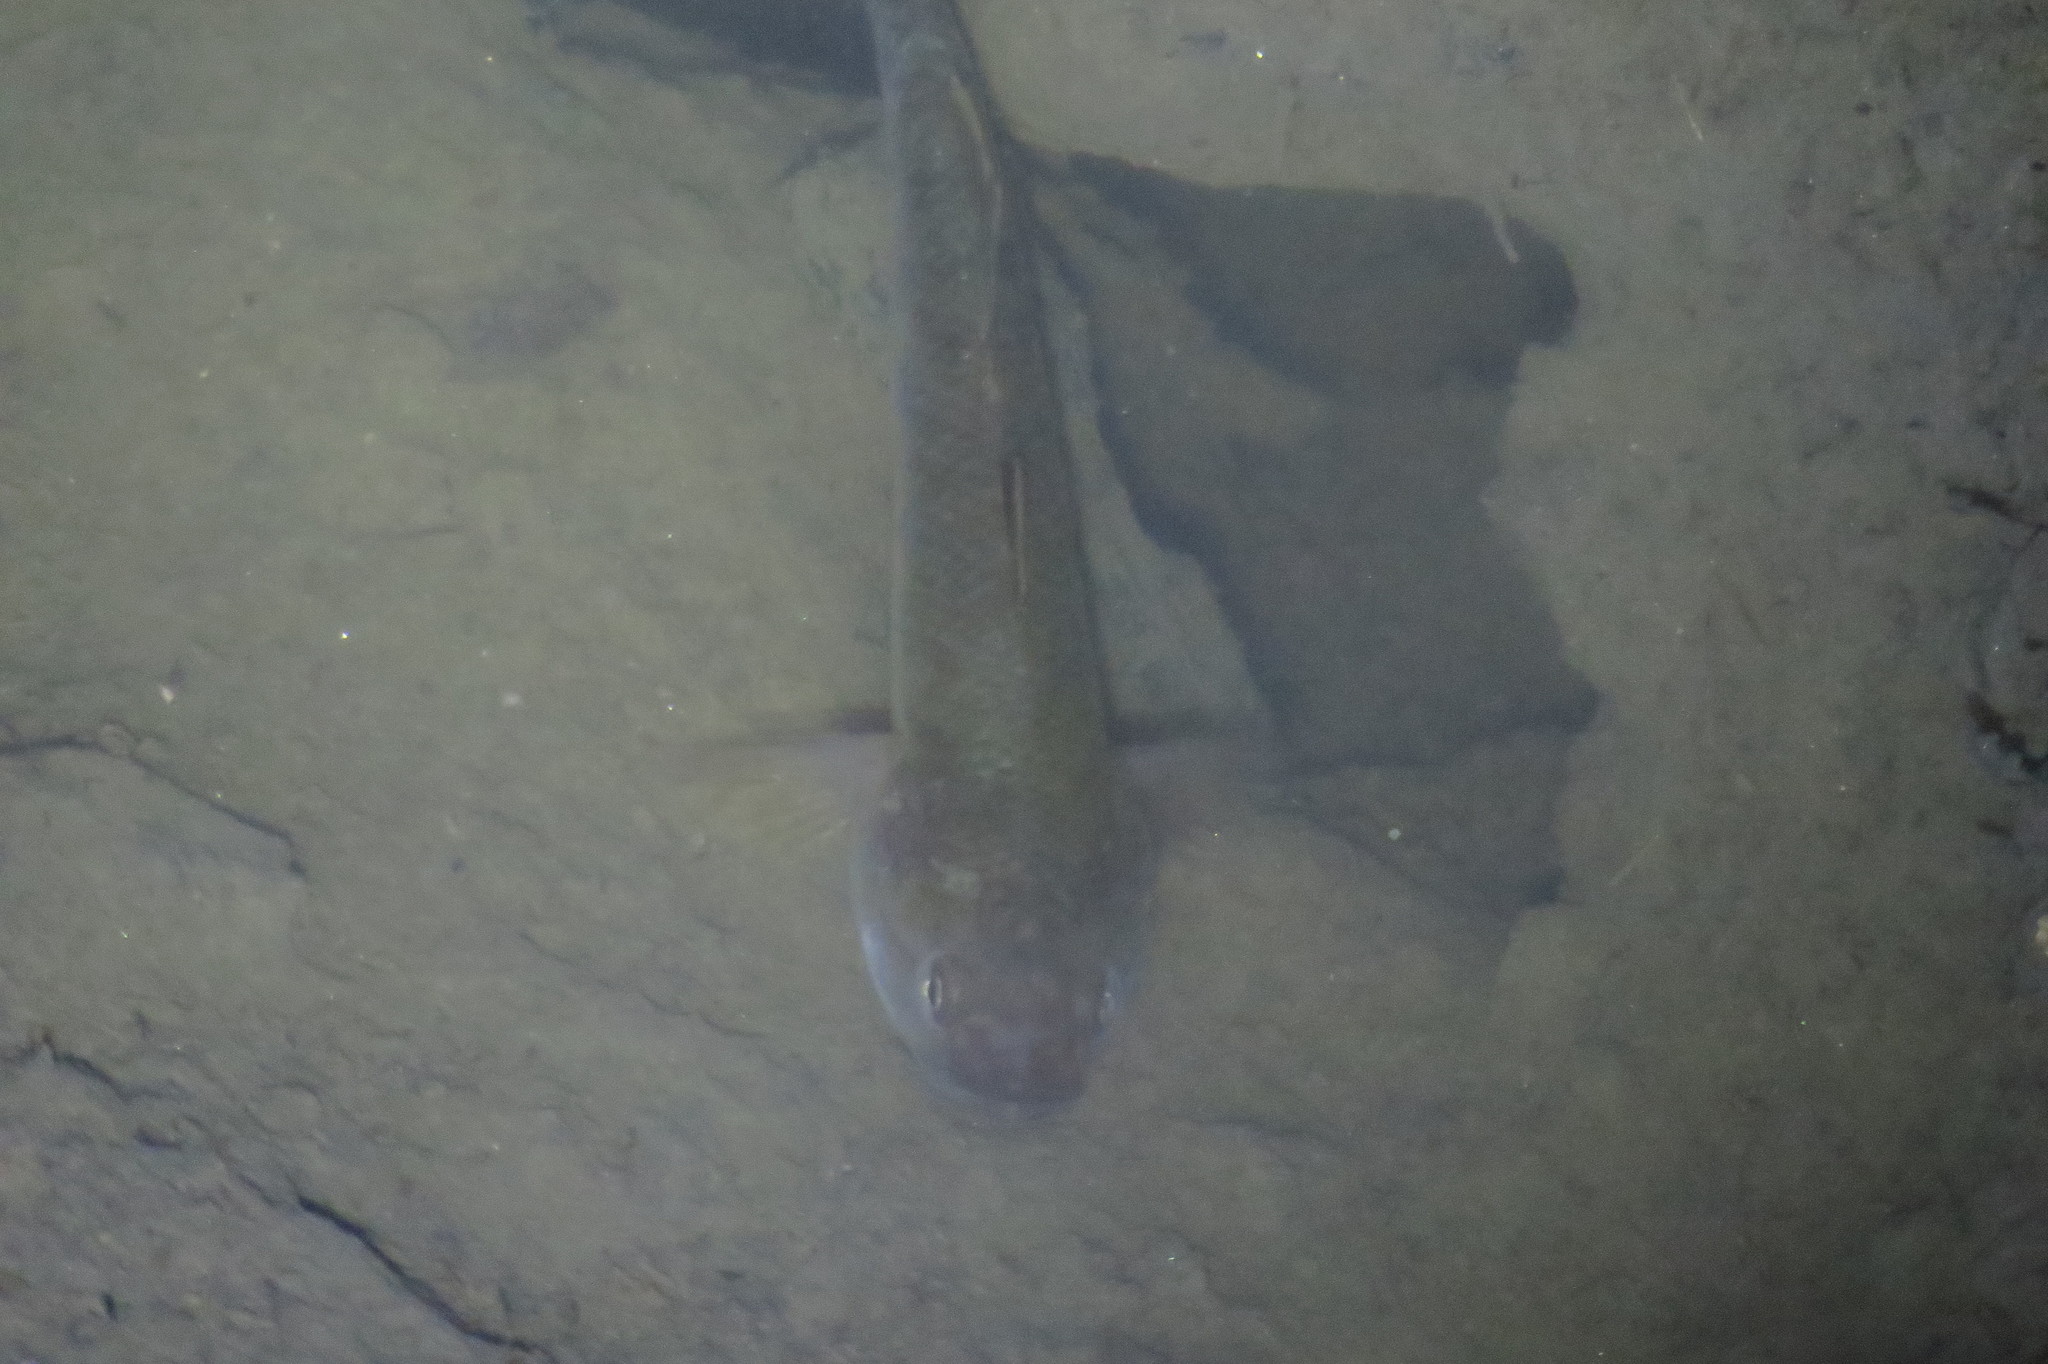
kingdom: Animalia
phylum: Chordata
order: Perciformes
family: Gobiidae
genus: Mugilogobius
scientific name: Mugilogobius platystomus
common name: Indonesian goby
